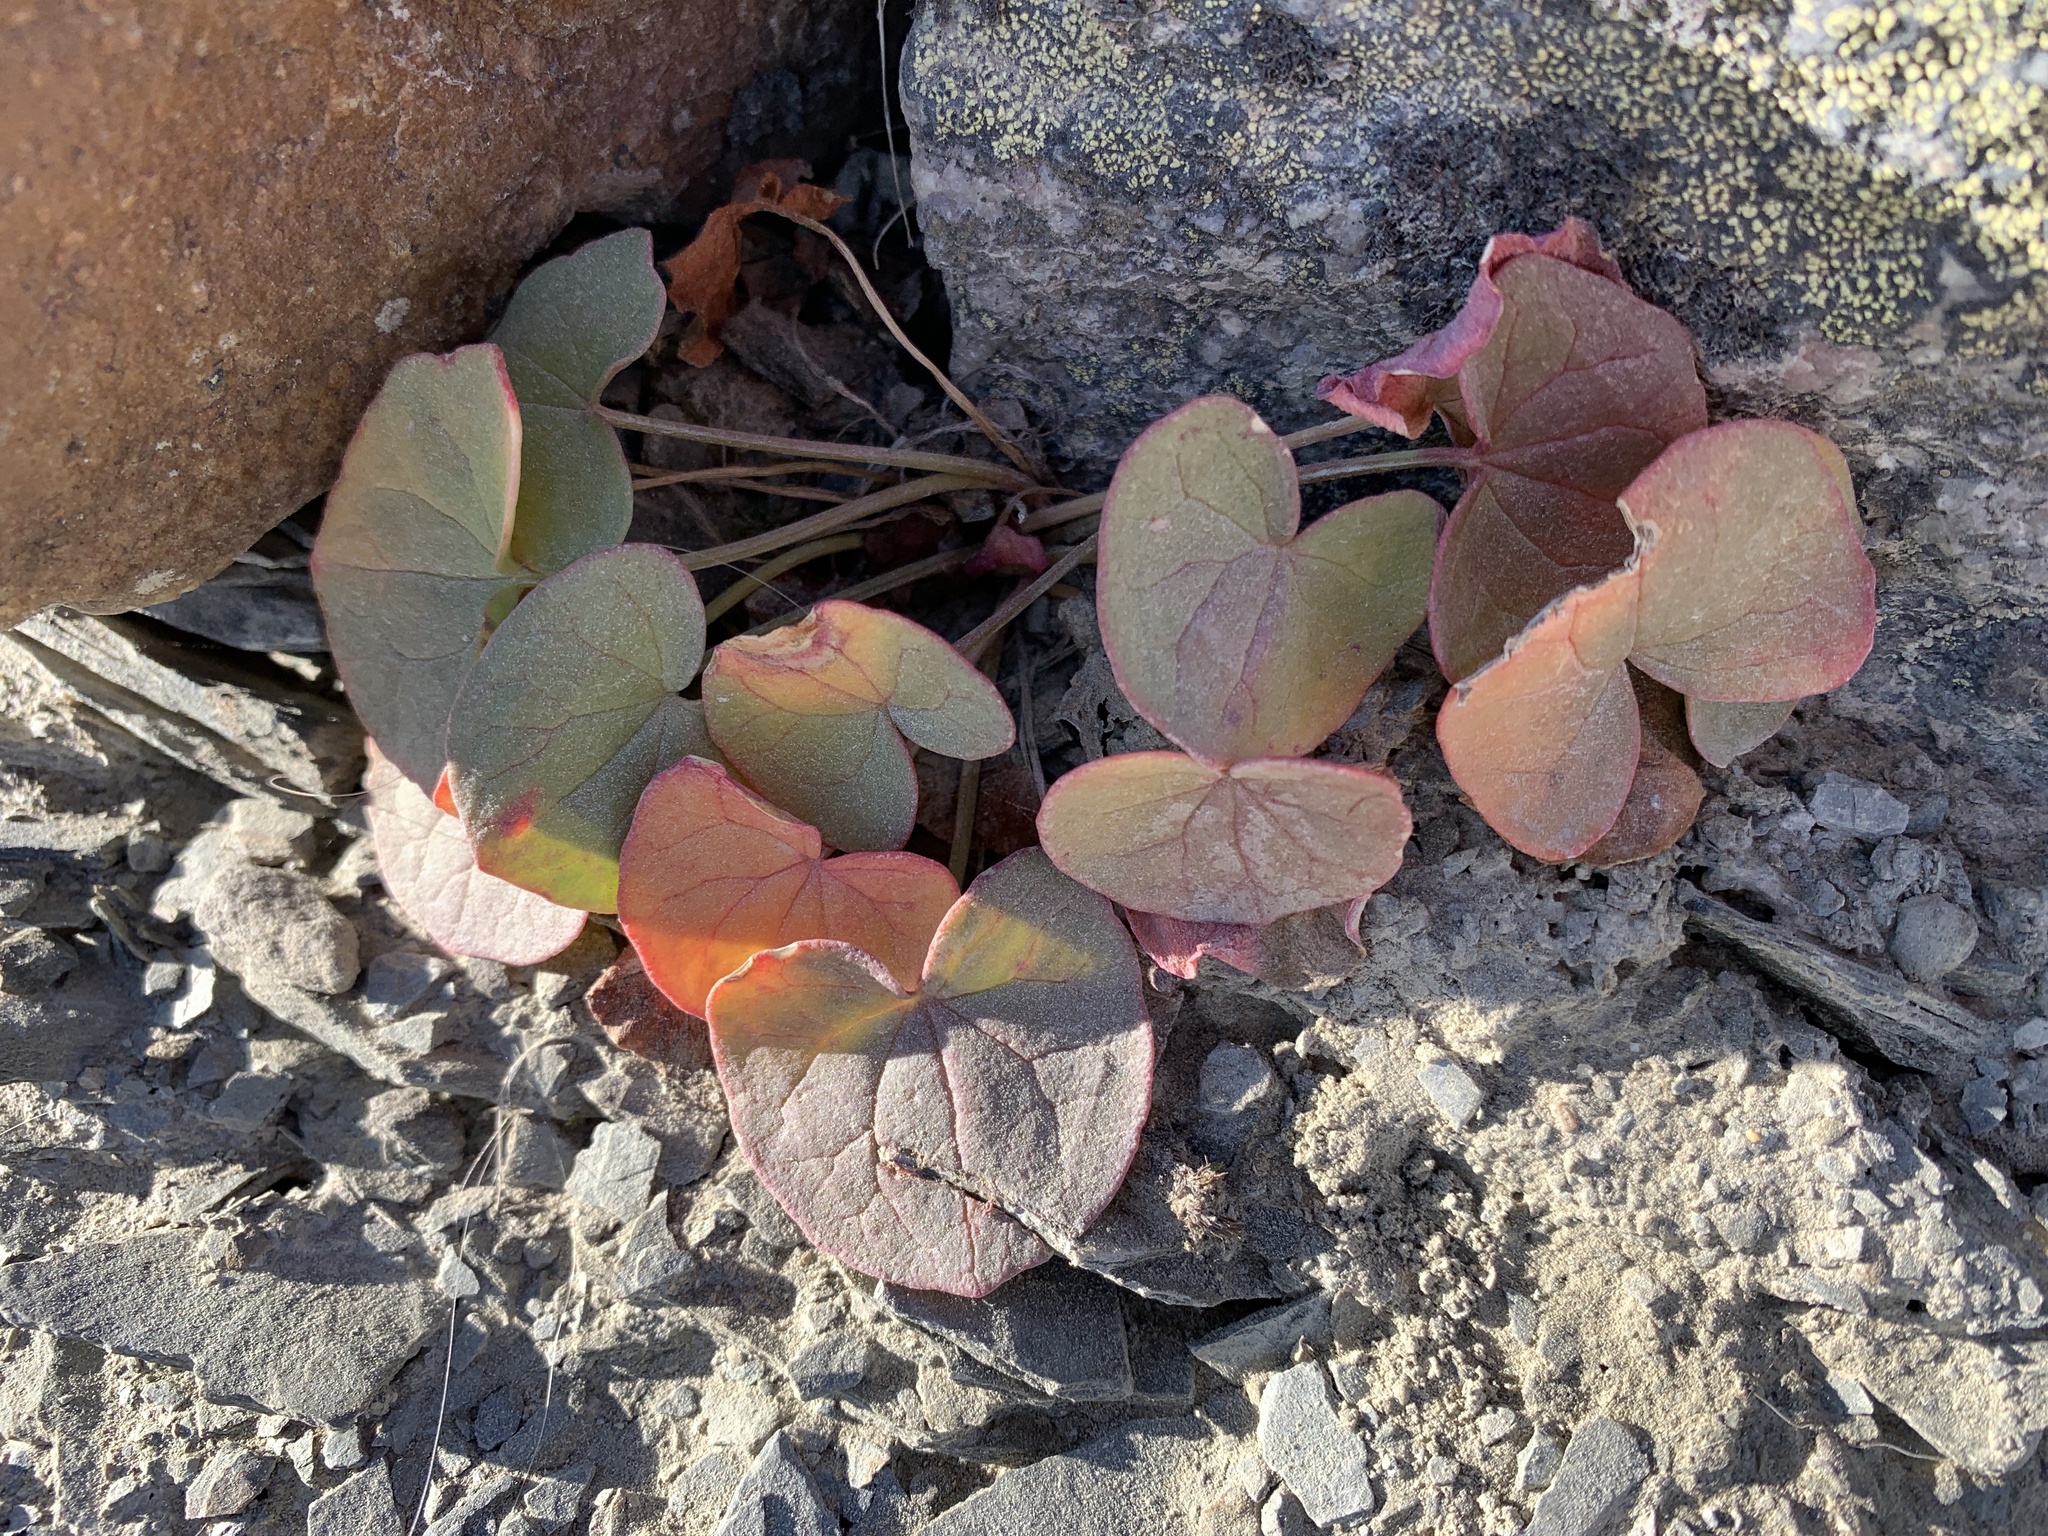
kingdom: Plantae
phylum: Tracheophyta
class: Magnoliopsida
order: Caryophyllales
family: Polygonaceae
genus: Oxyria
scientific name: Oxyria digyna
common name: Alpine mountain-sorrel
